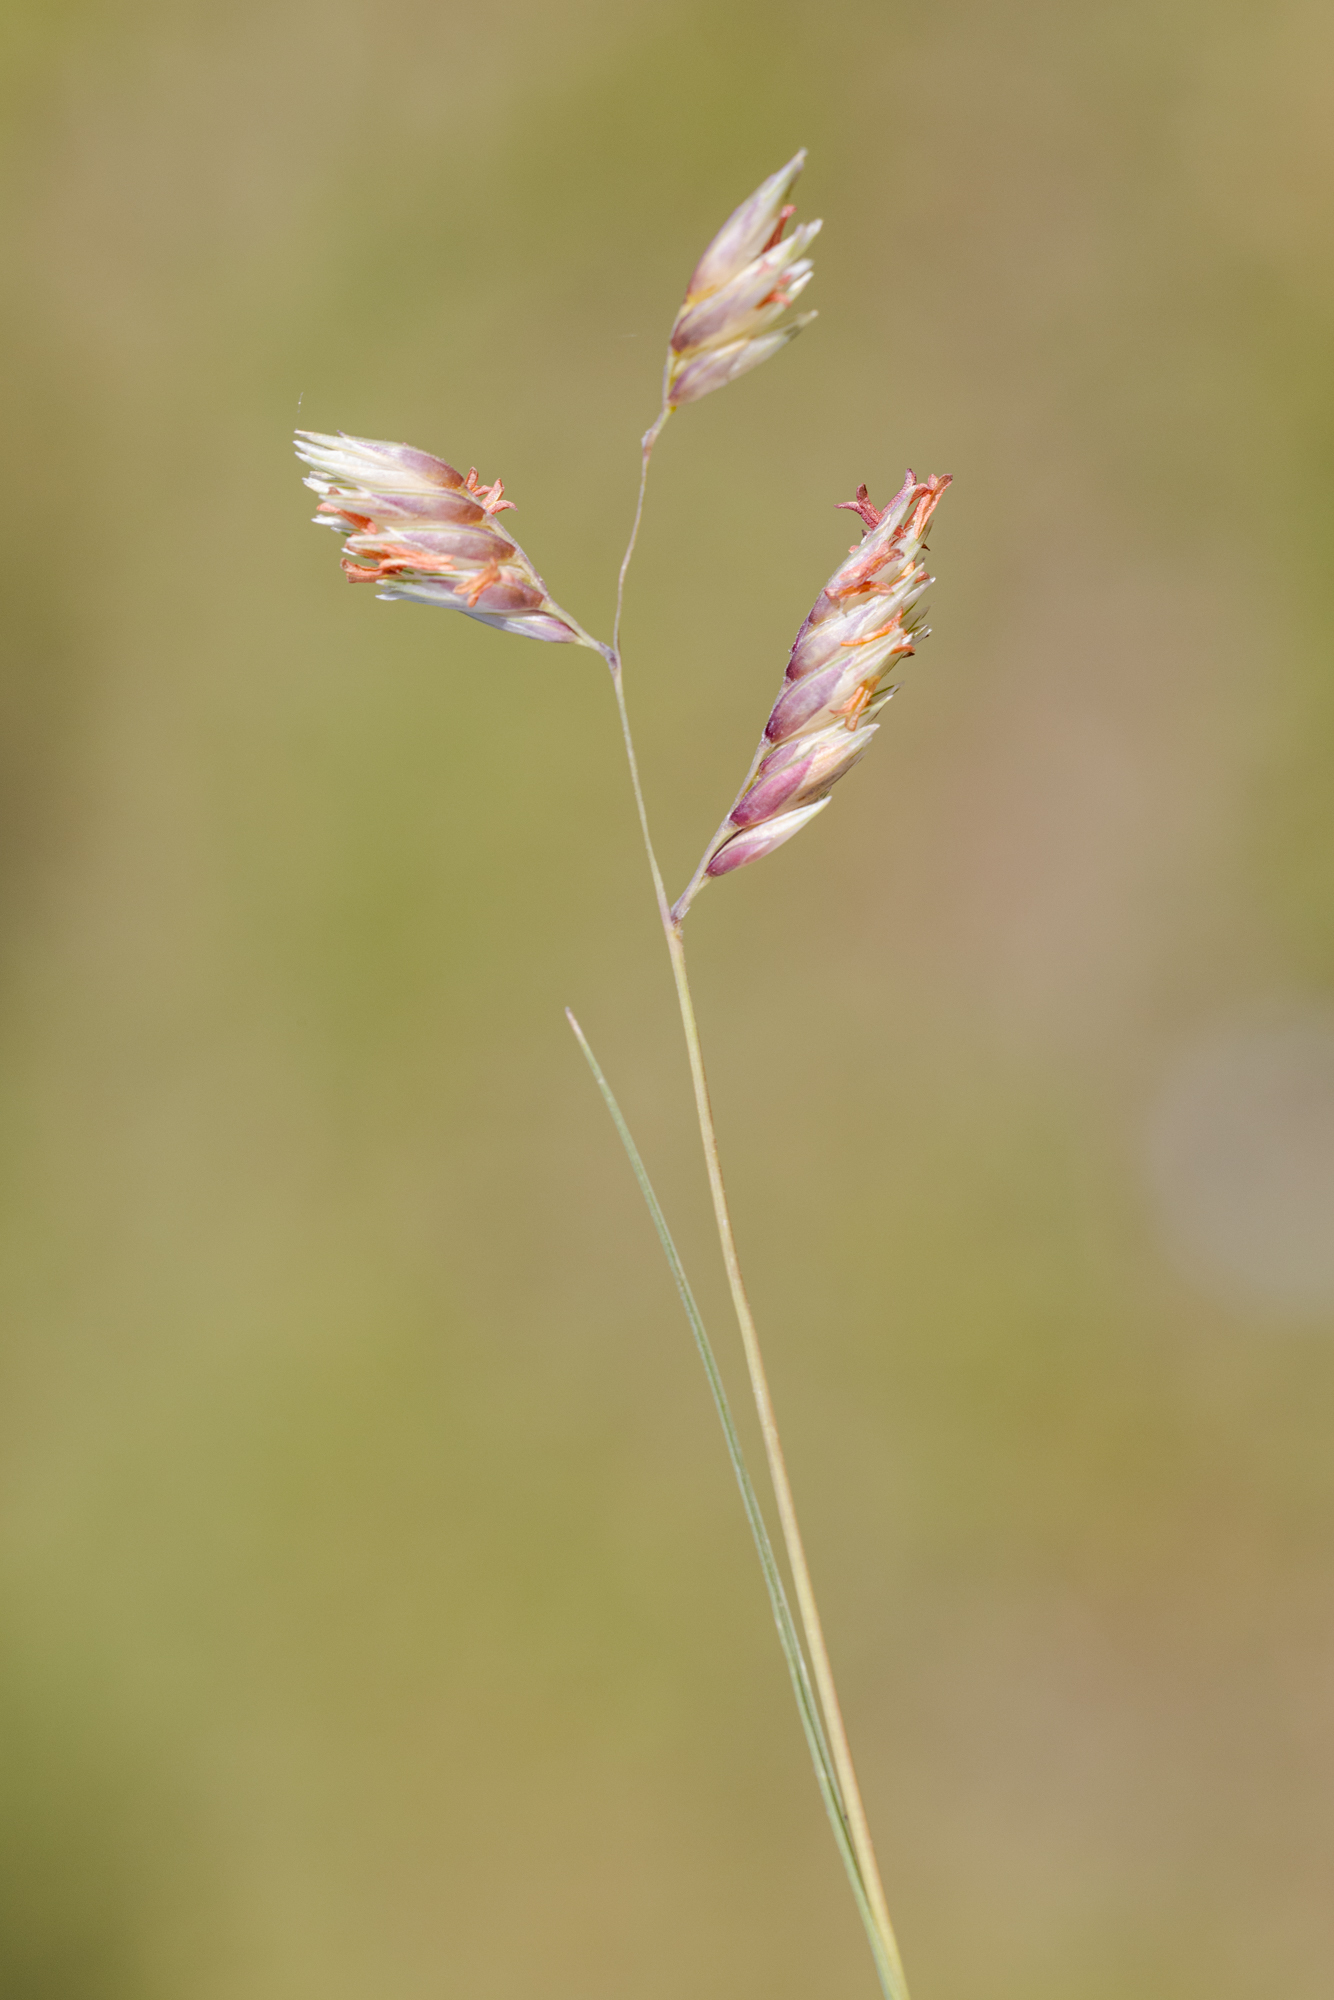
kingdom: Plantae
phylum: Tracheophyta
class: Liliopsida
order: Poales
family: Poaceae
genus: Bouteloua
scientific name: Bouteloua dactyloides
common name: Buffalo grass
